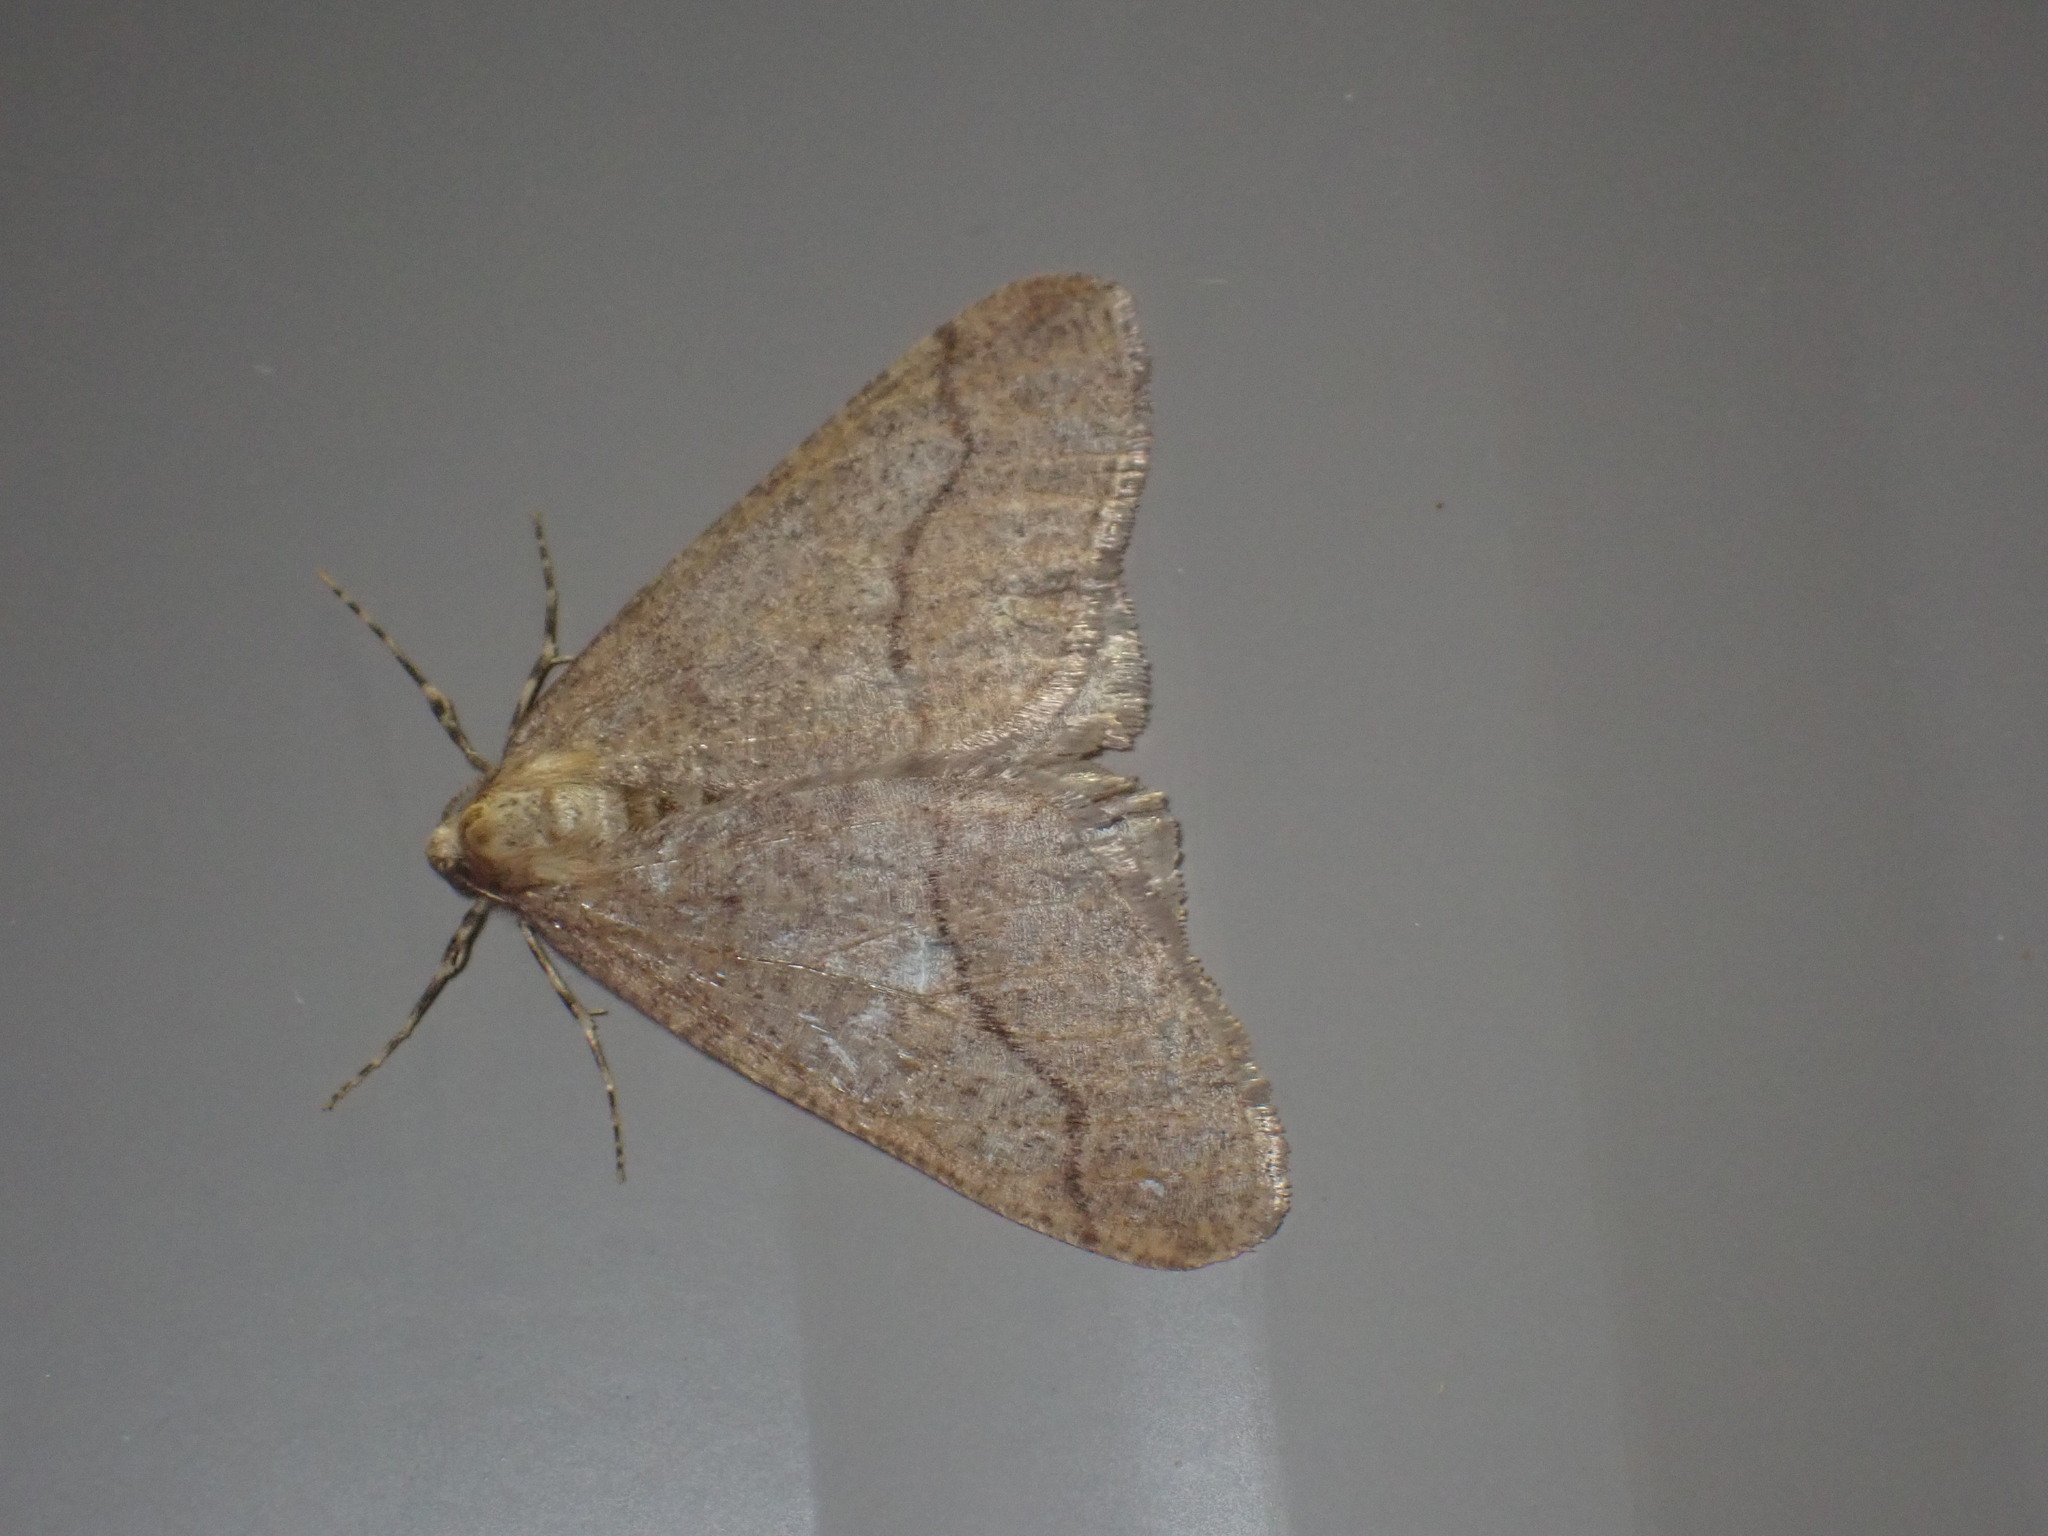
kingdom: Animalia
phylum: Arthropoda
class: Insecta
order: Lepidoptera
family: Geometridae
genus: Erannis
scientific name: Erannis tiliaria
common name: Linden looper
